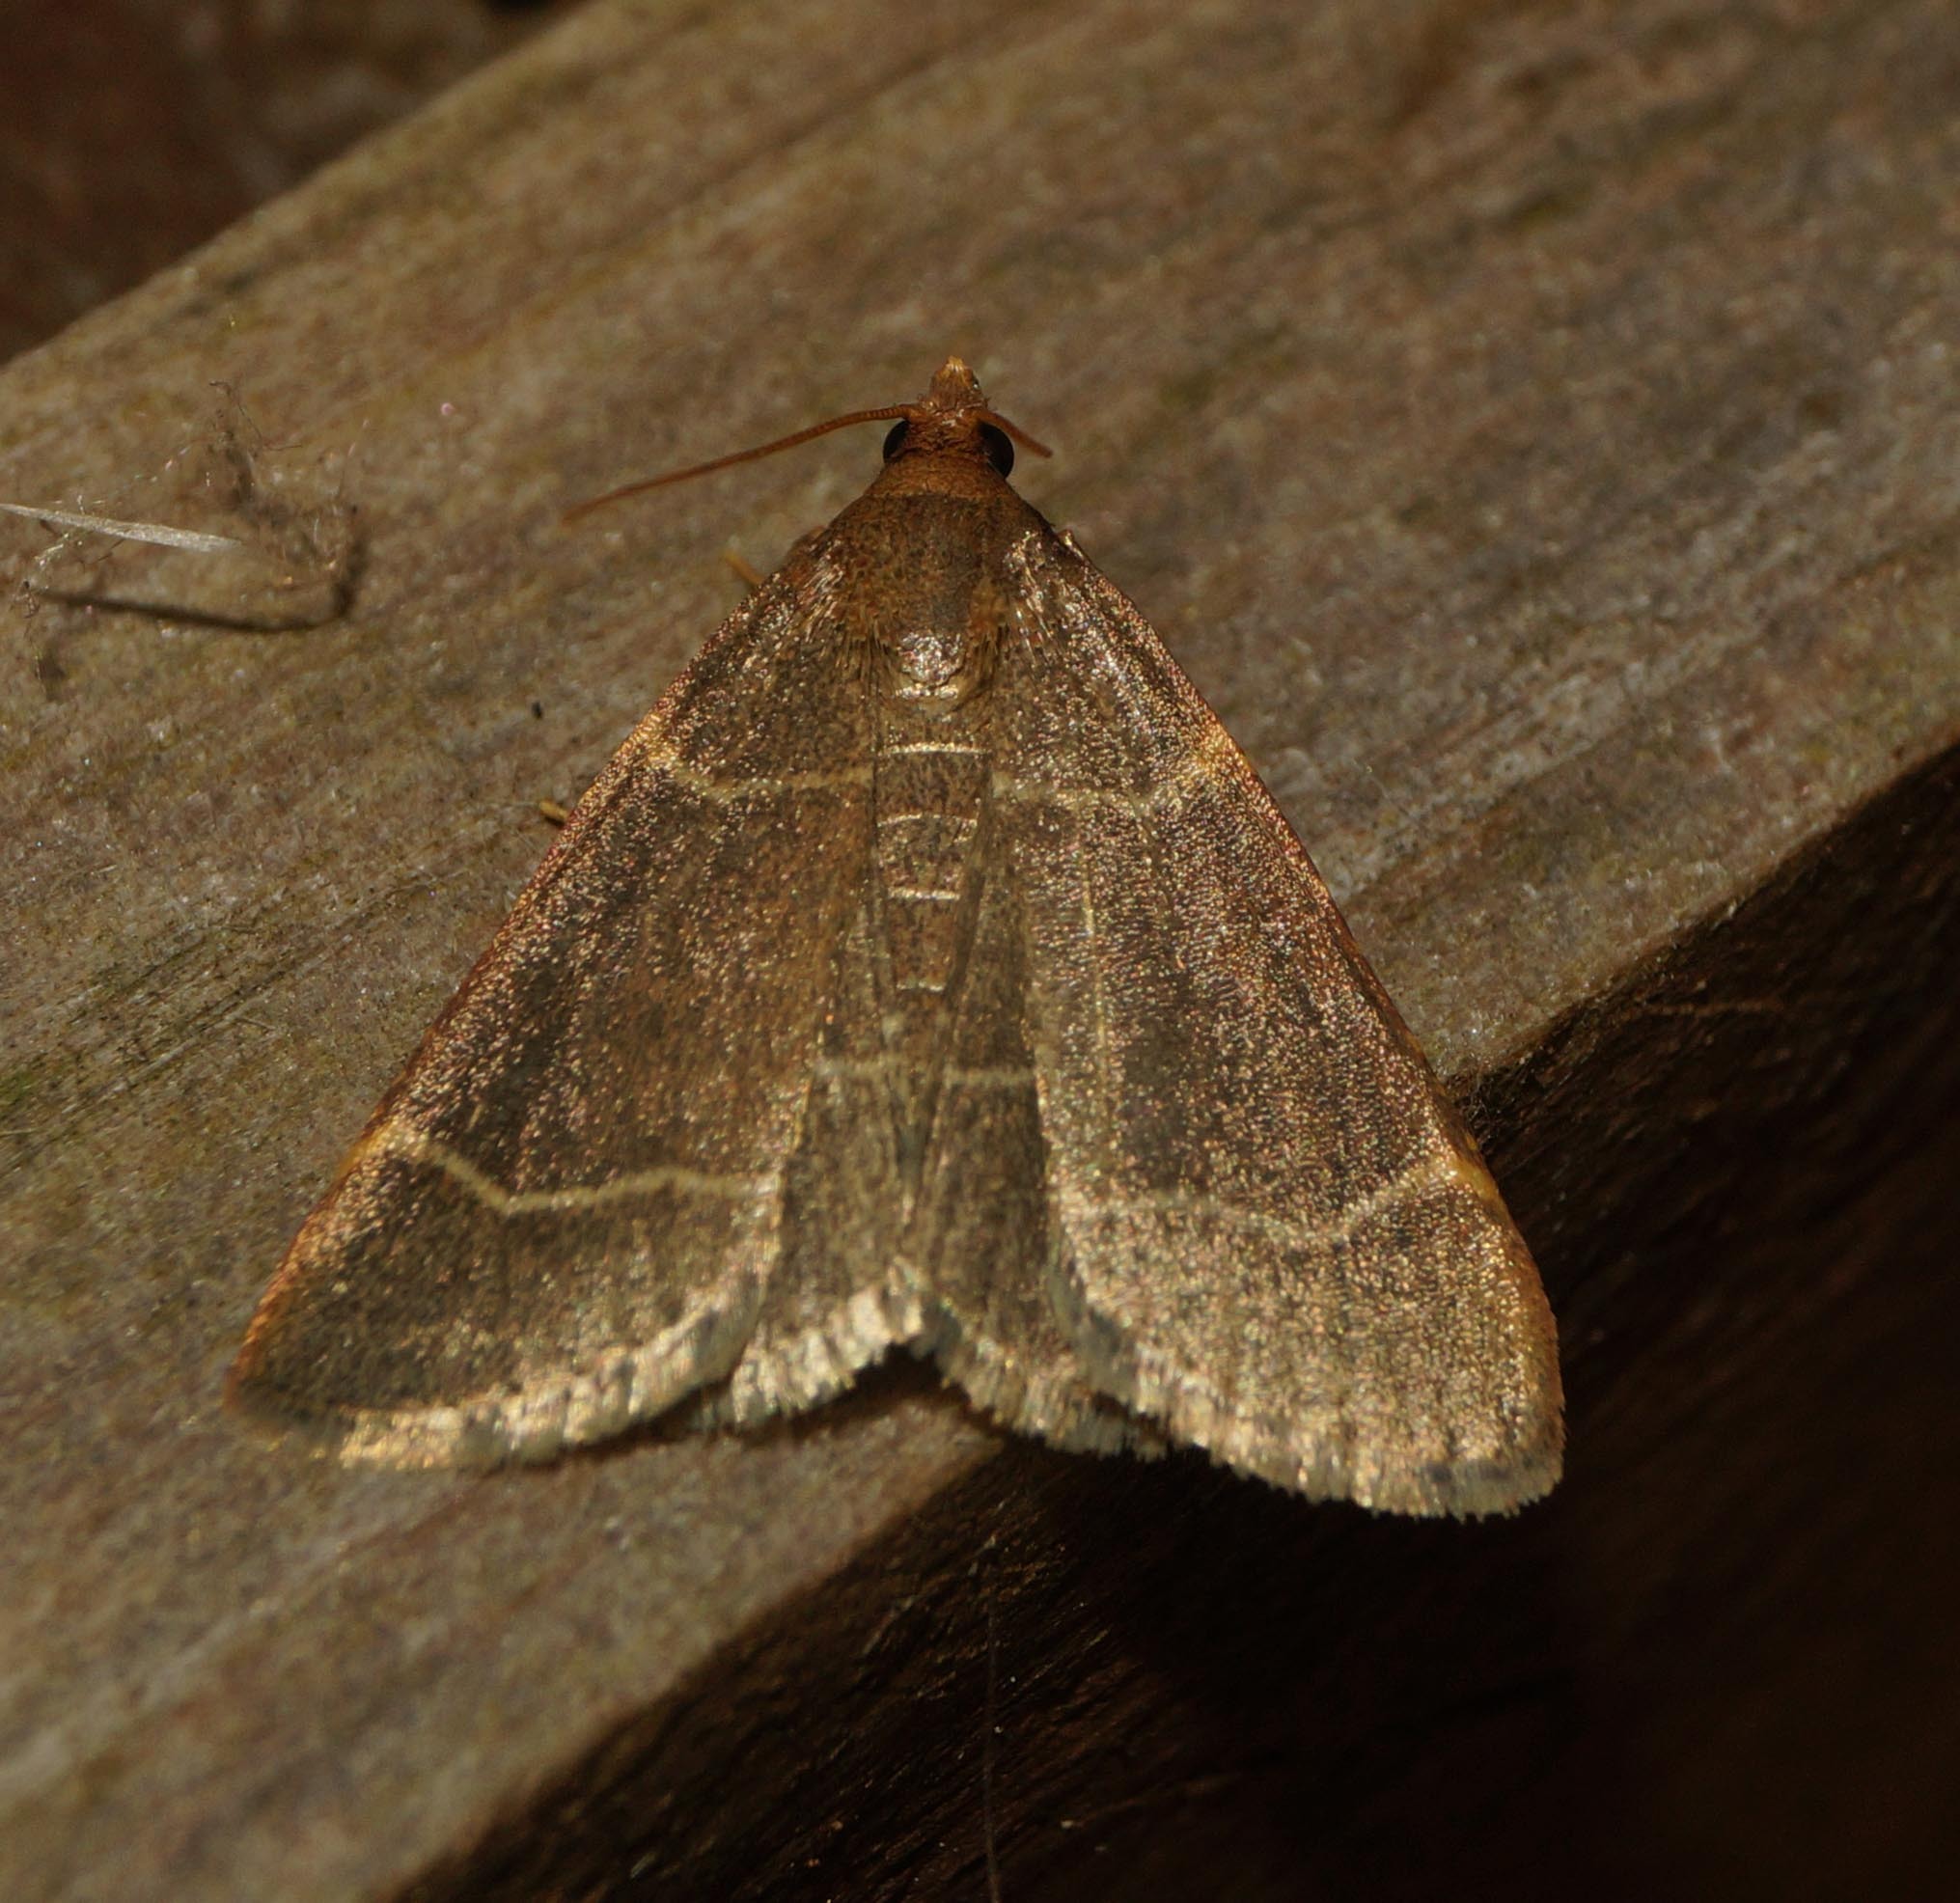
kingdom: Animalia
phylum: Arthropoda
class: Insecta
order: Lepidoptera
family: Pyralidae
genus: Hypsopygia
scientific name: Hypsopygia glaucinalis
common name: Double-striped tabby
